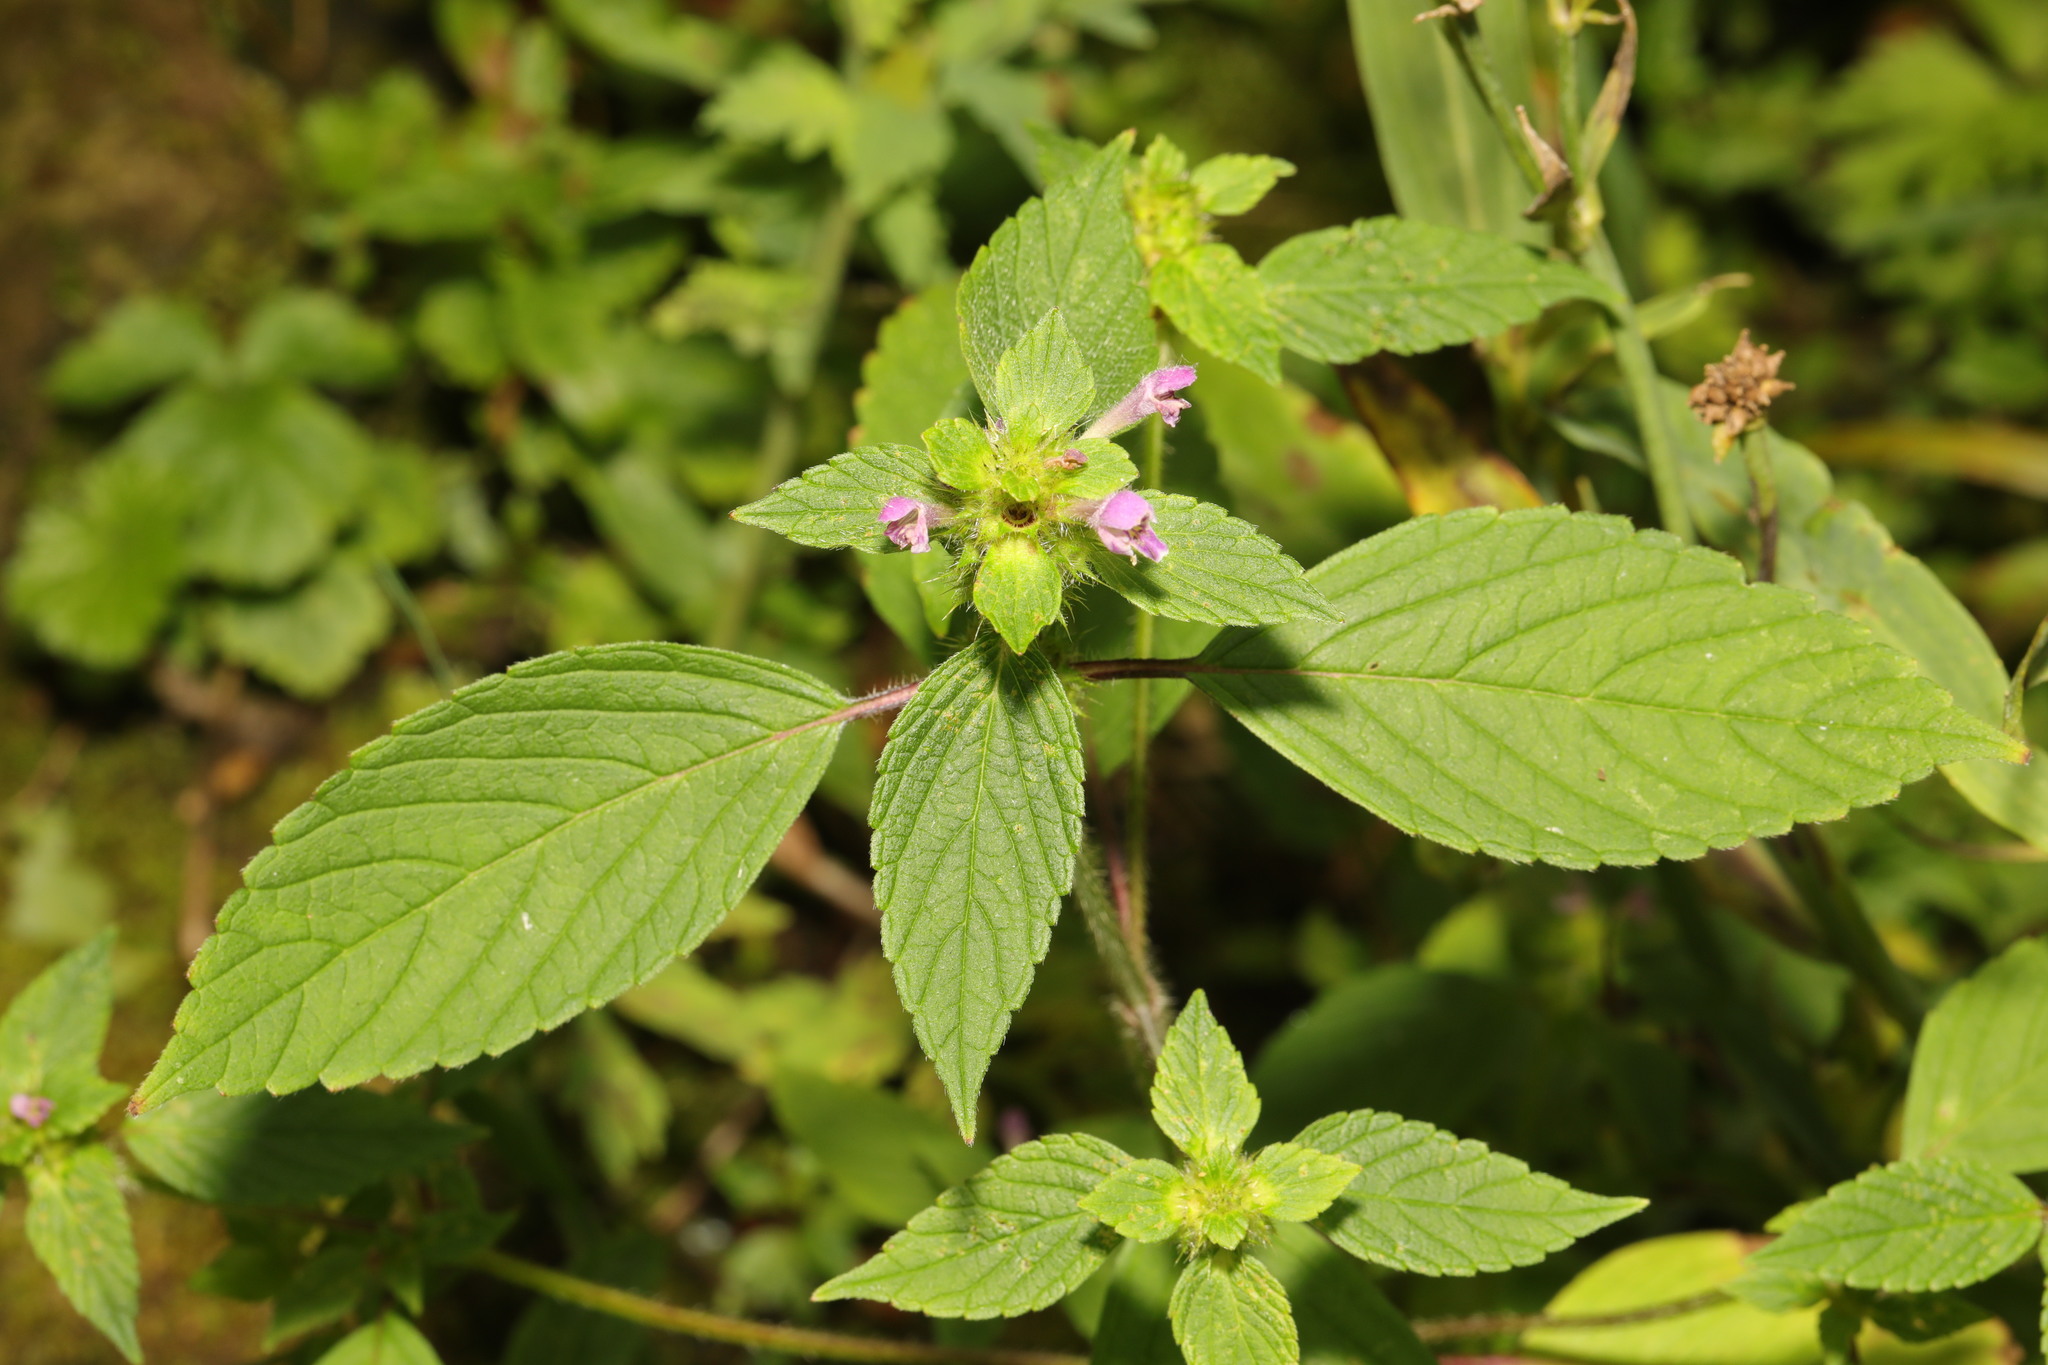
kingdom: Plantae
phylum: Tracheophyta
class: Magnoliopsida
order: Lamiales
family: Lamiaceae
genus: Galeopsis
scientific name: Galeopsis bifida
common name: Bifid hemp-nettle
